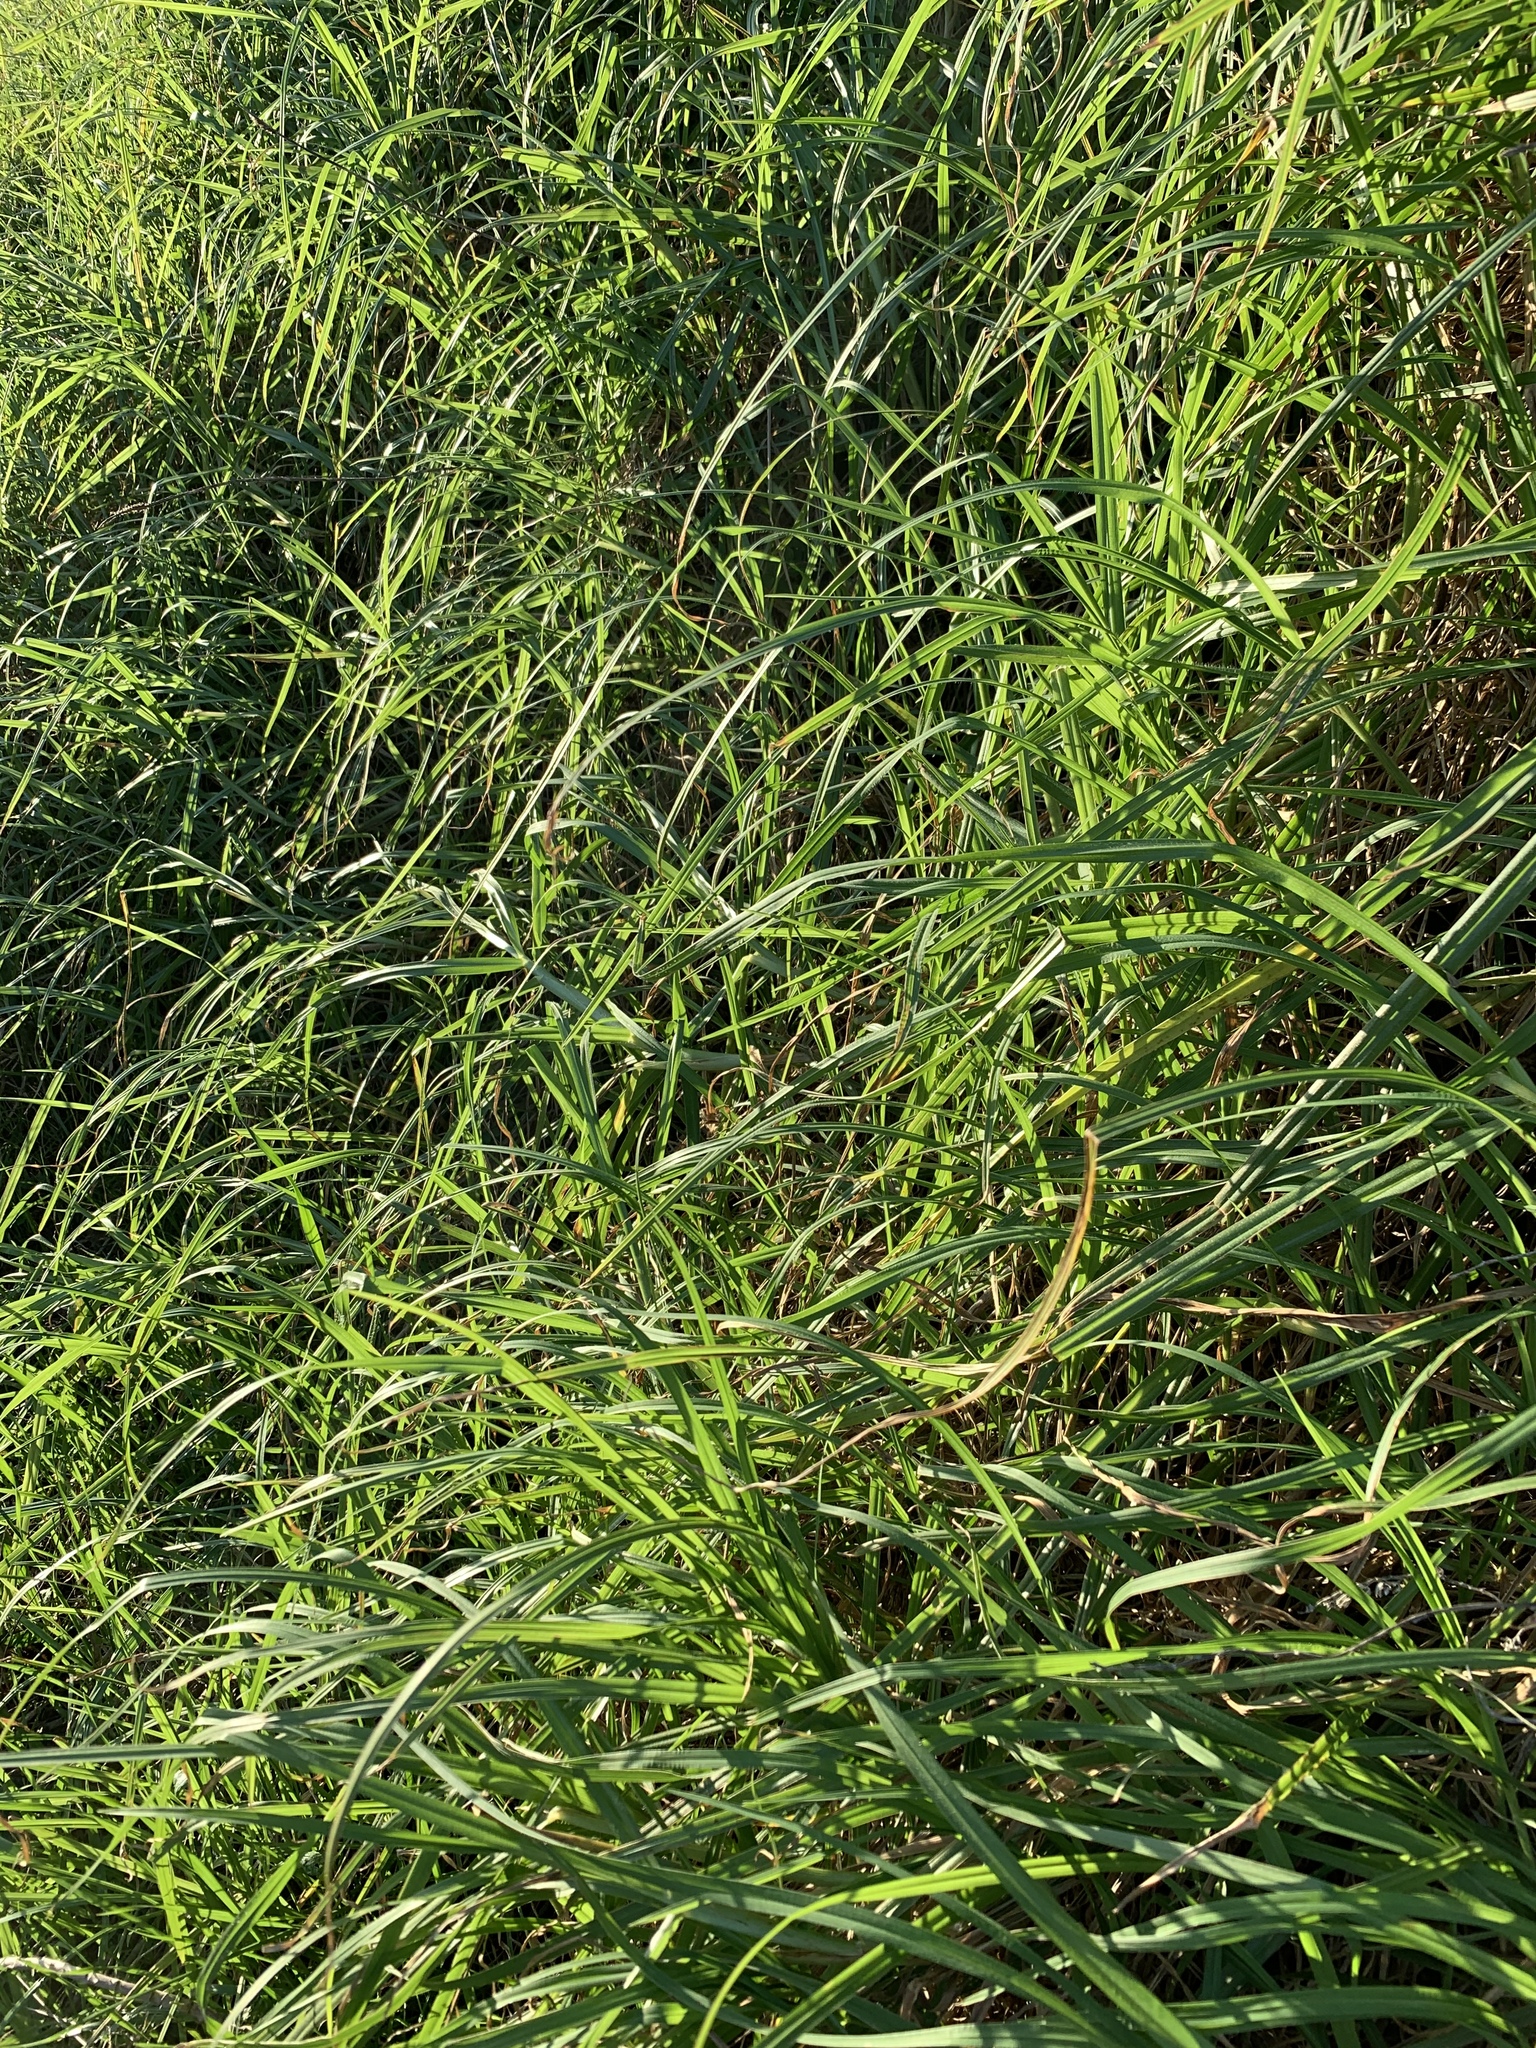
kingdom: Plantae
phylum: Tracheophyta
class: Liliopsida
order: Poales
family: Poaceae
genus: Cenchrus
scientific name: Cenchrus clandestinus
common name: Kikuyugrass
